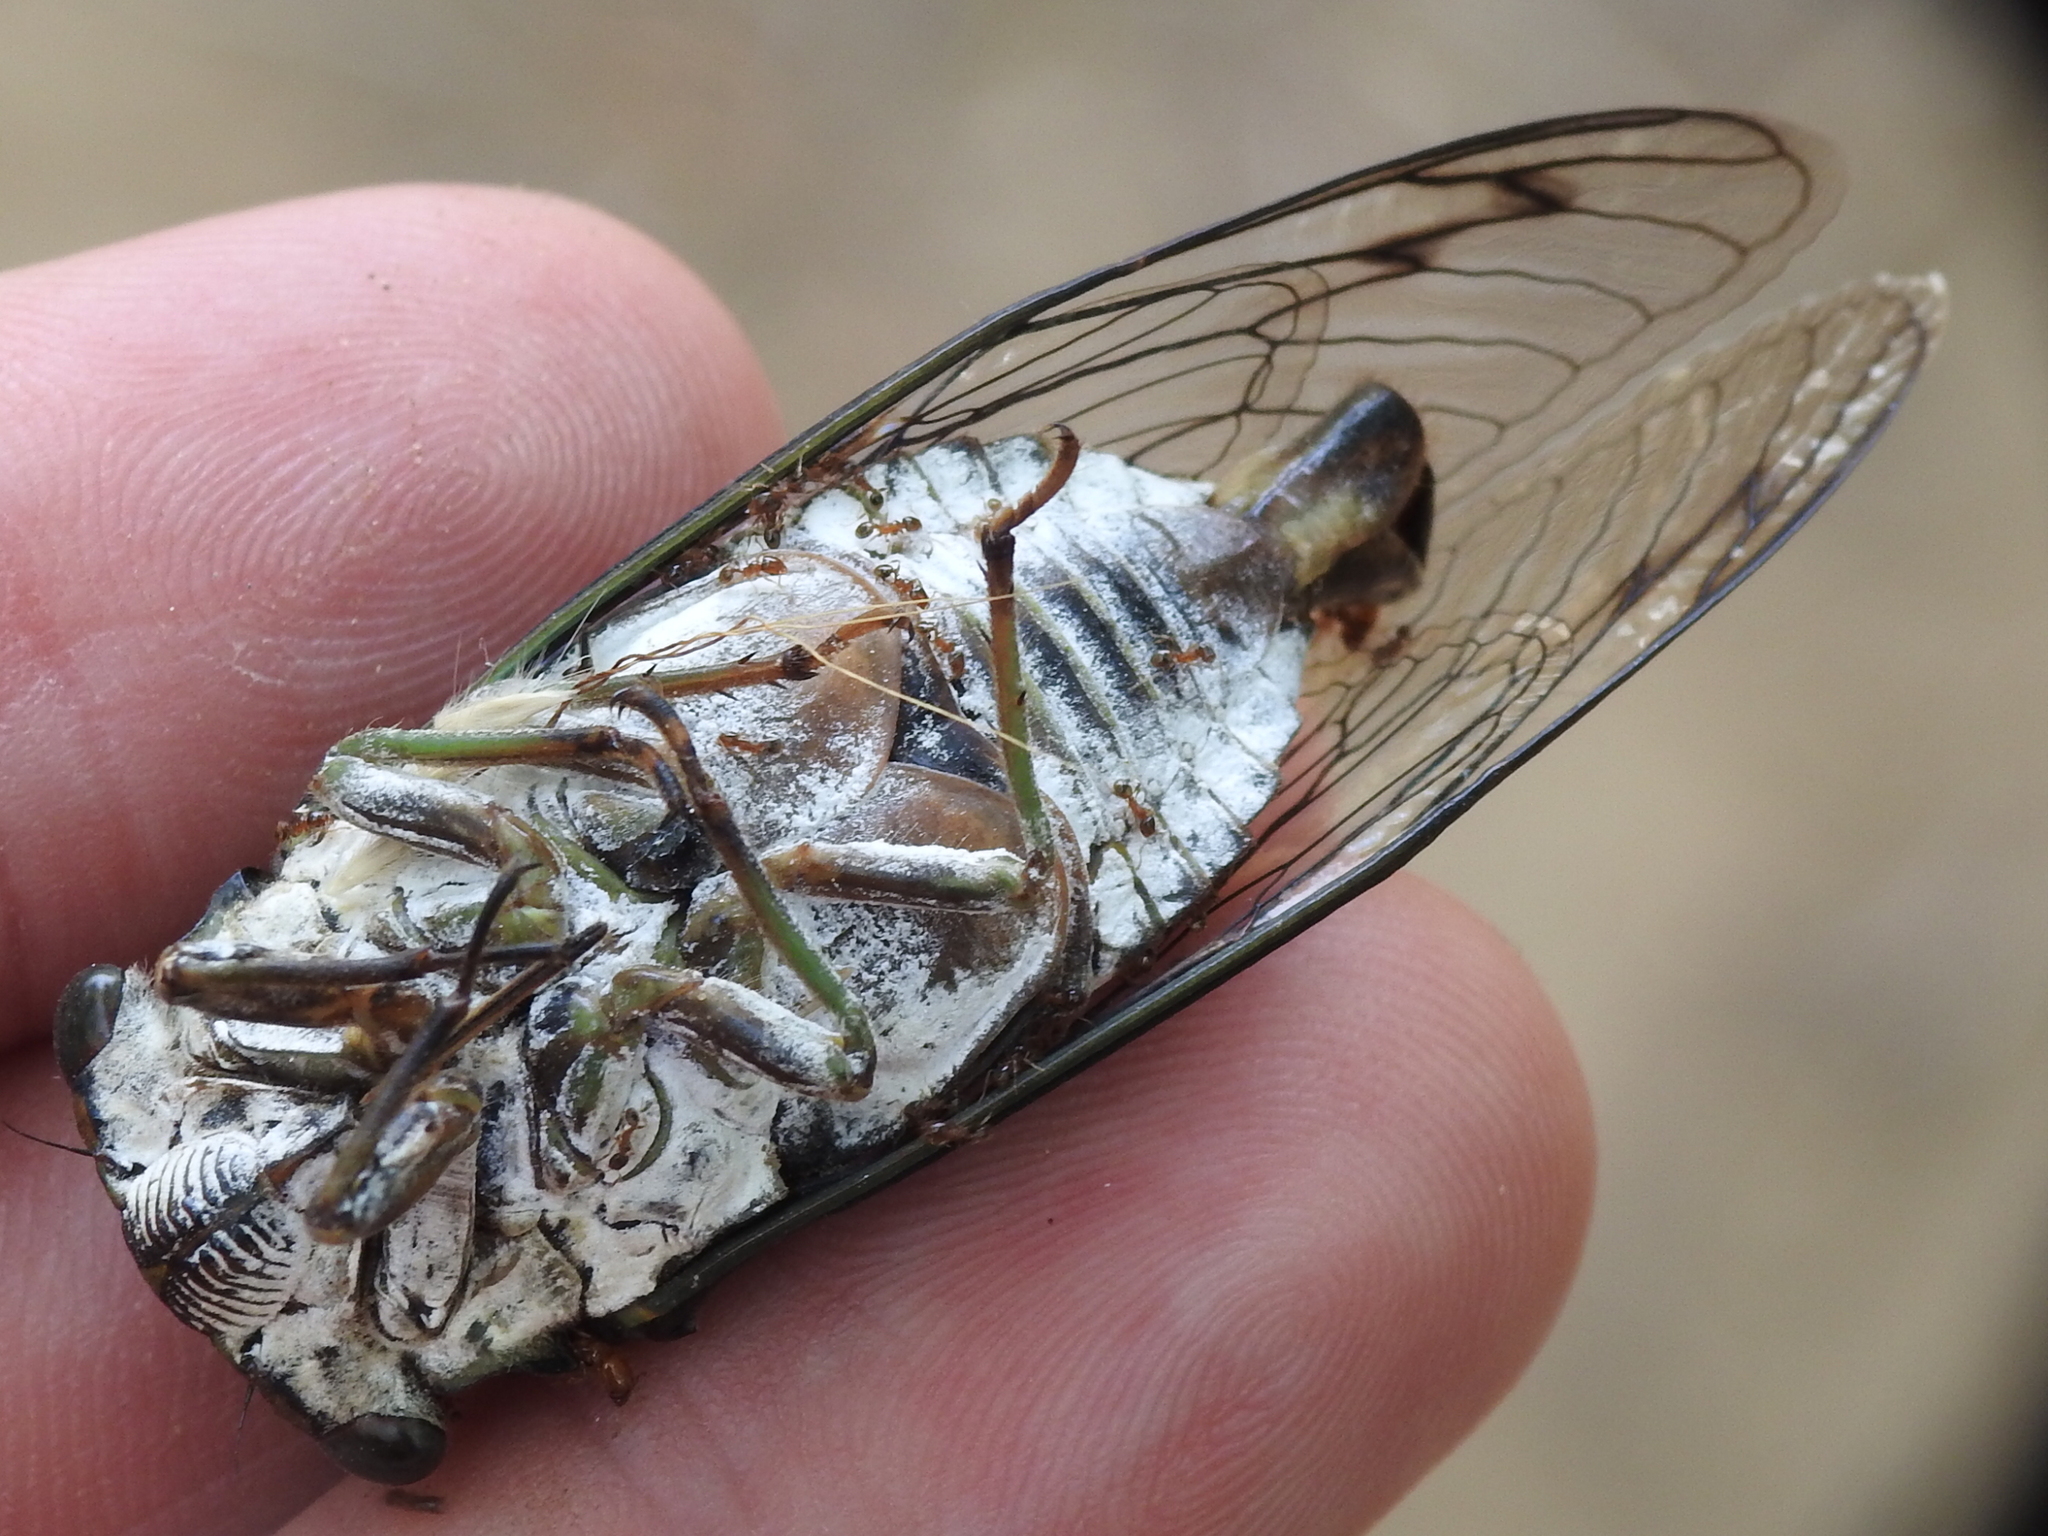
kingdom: Animalia
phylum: Arthropoda
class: Insecta
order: Hemiptera
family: Cicadidae
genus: Neotibicen
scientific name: Neotibicen pruinosus
